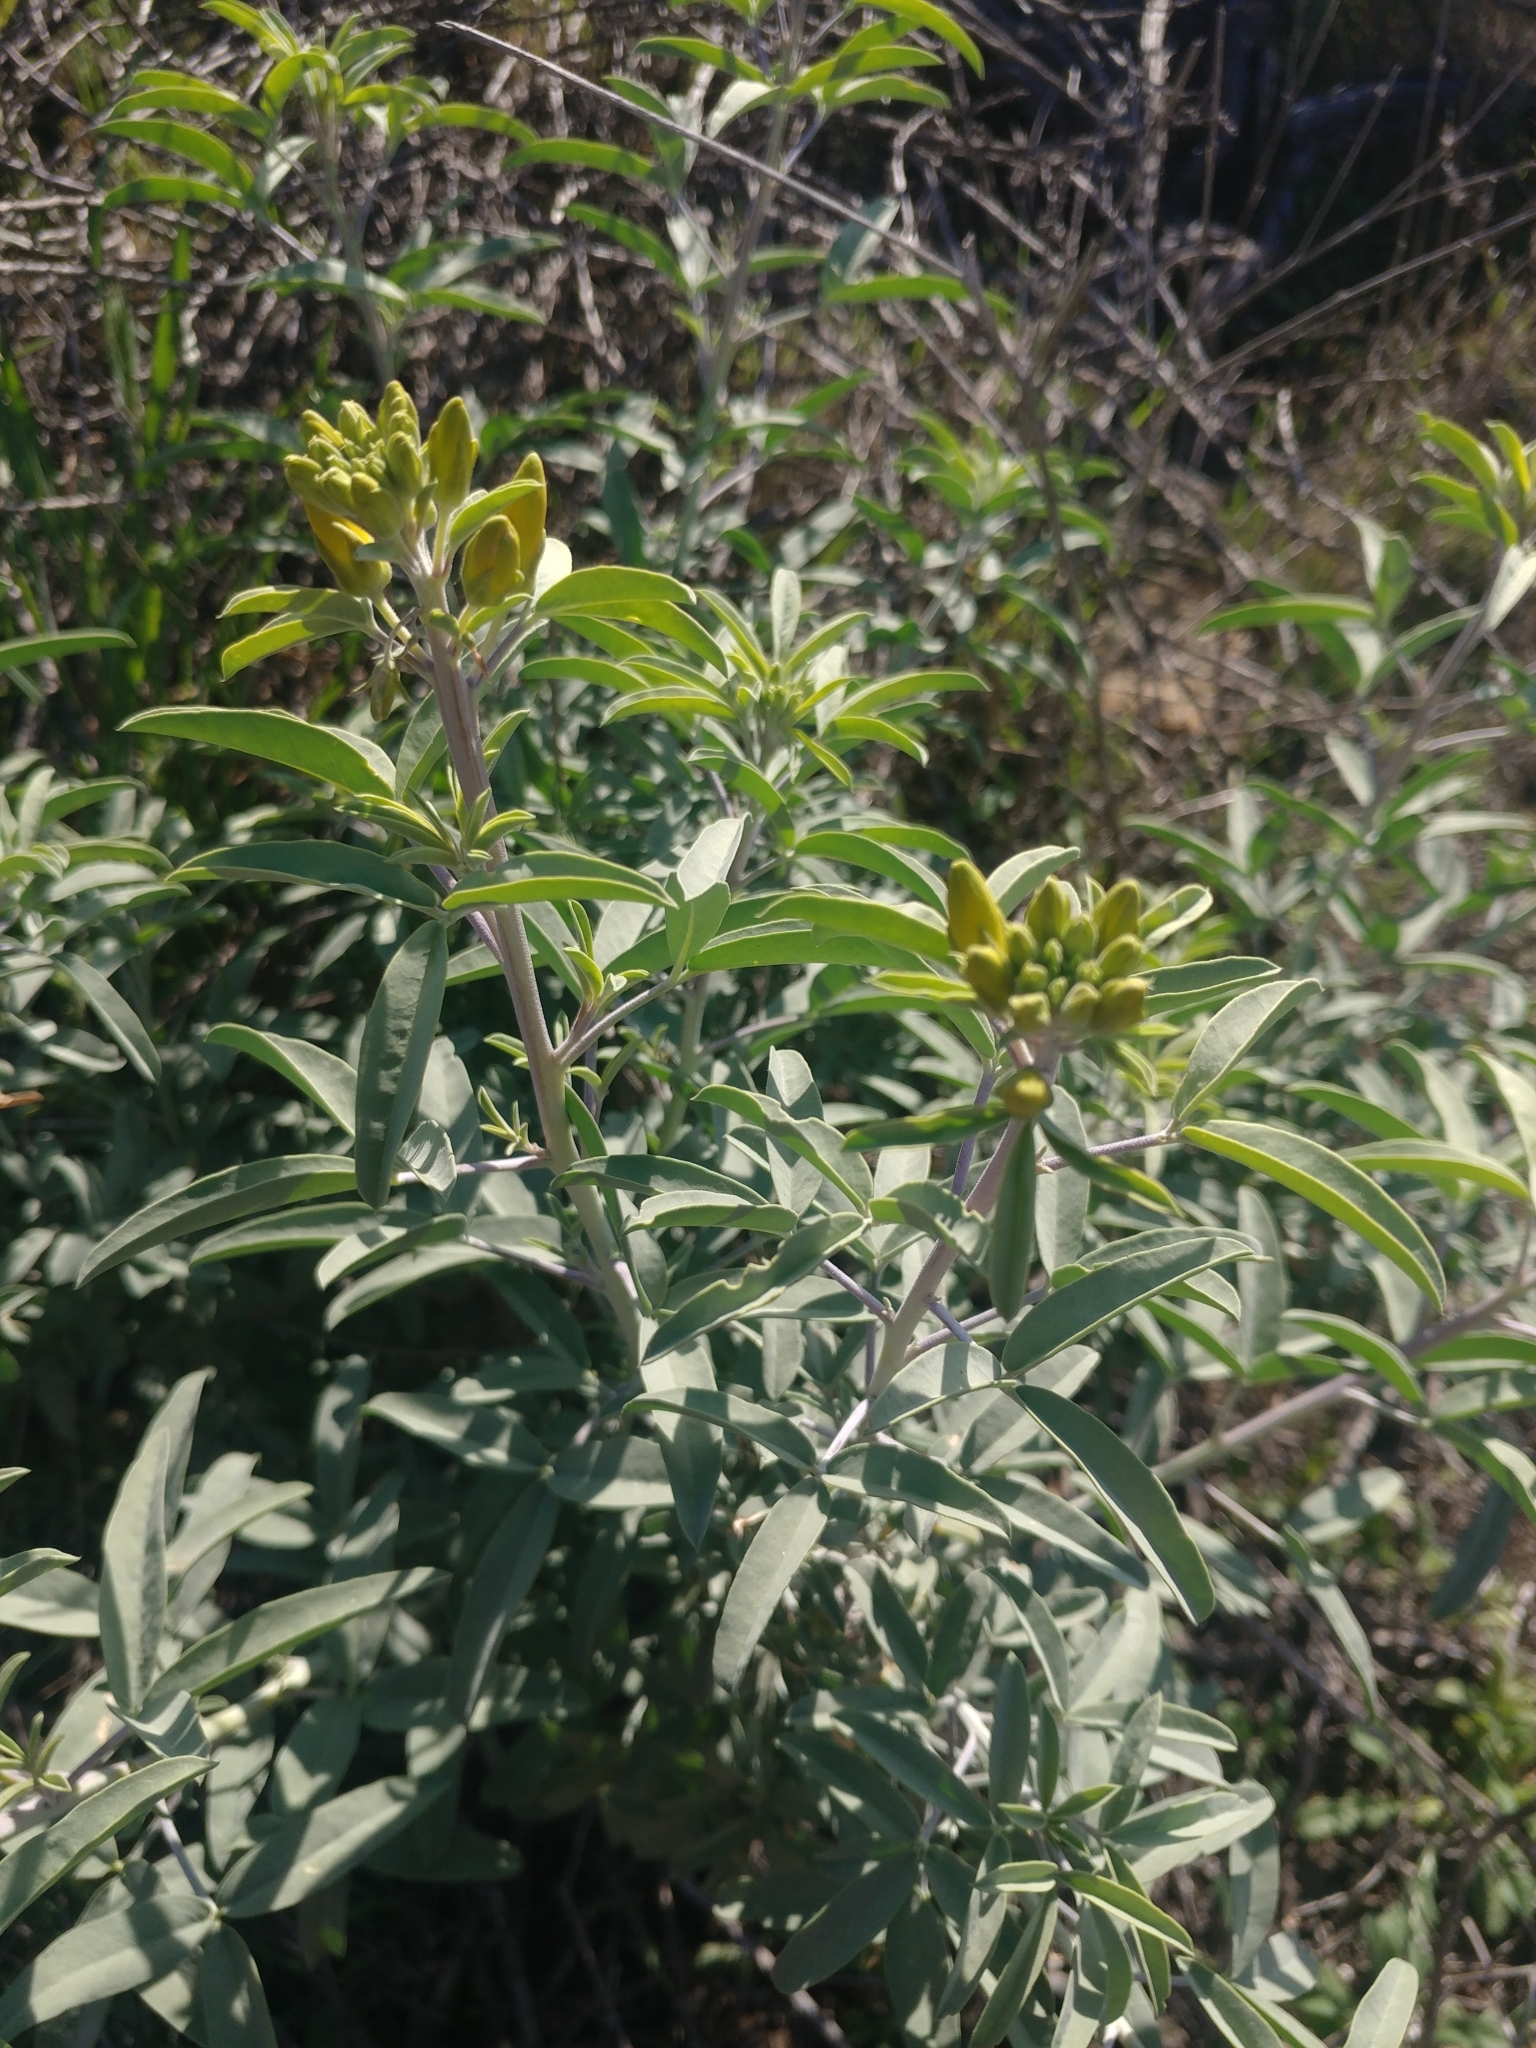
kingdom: Plantae
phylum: Tracheophyta
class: Magnoliopsida
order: Brassicales
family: Cleomaceae
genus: Cleomella
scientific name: Cleomella arborea
